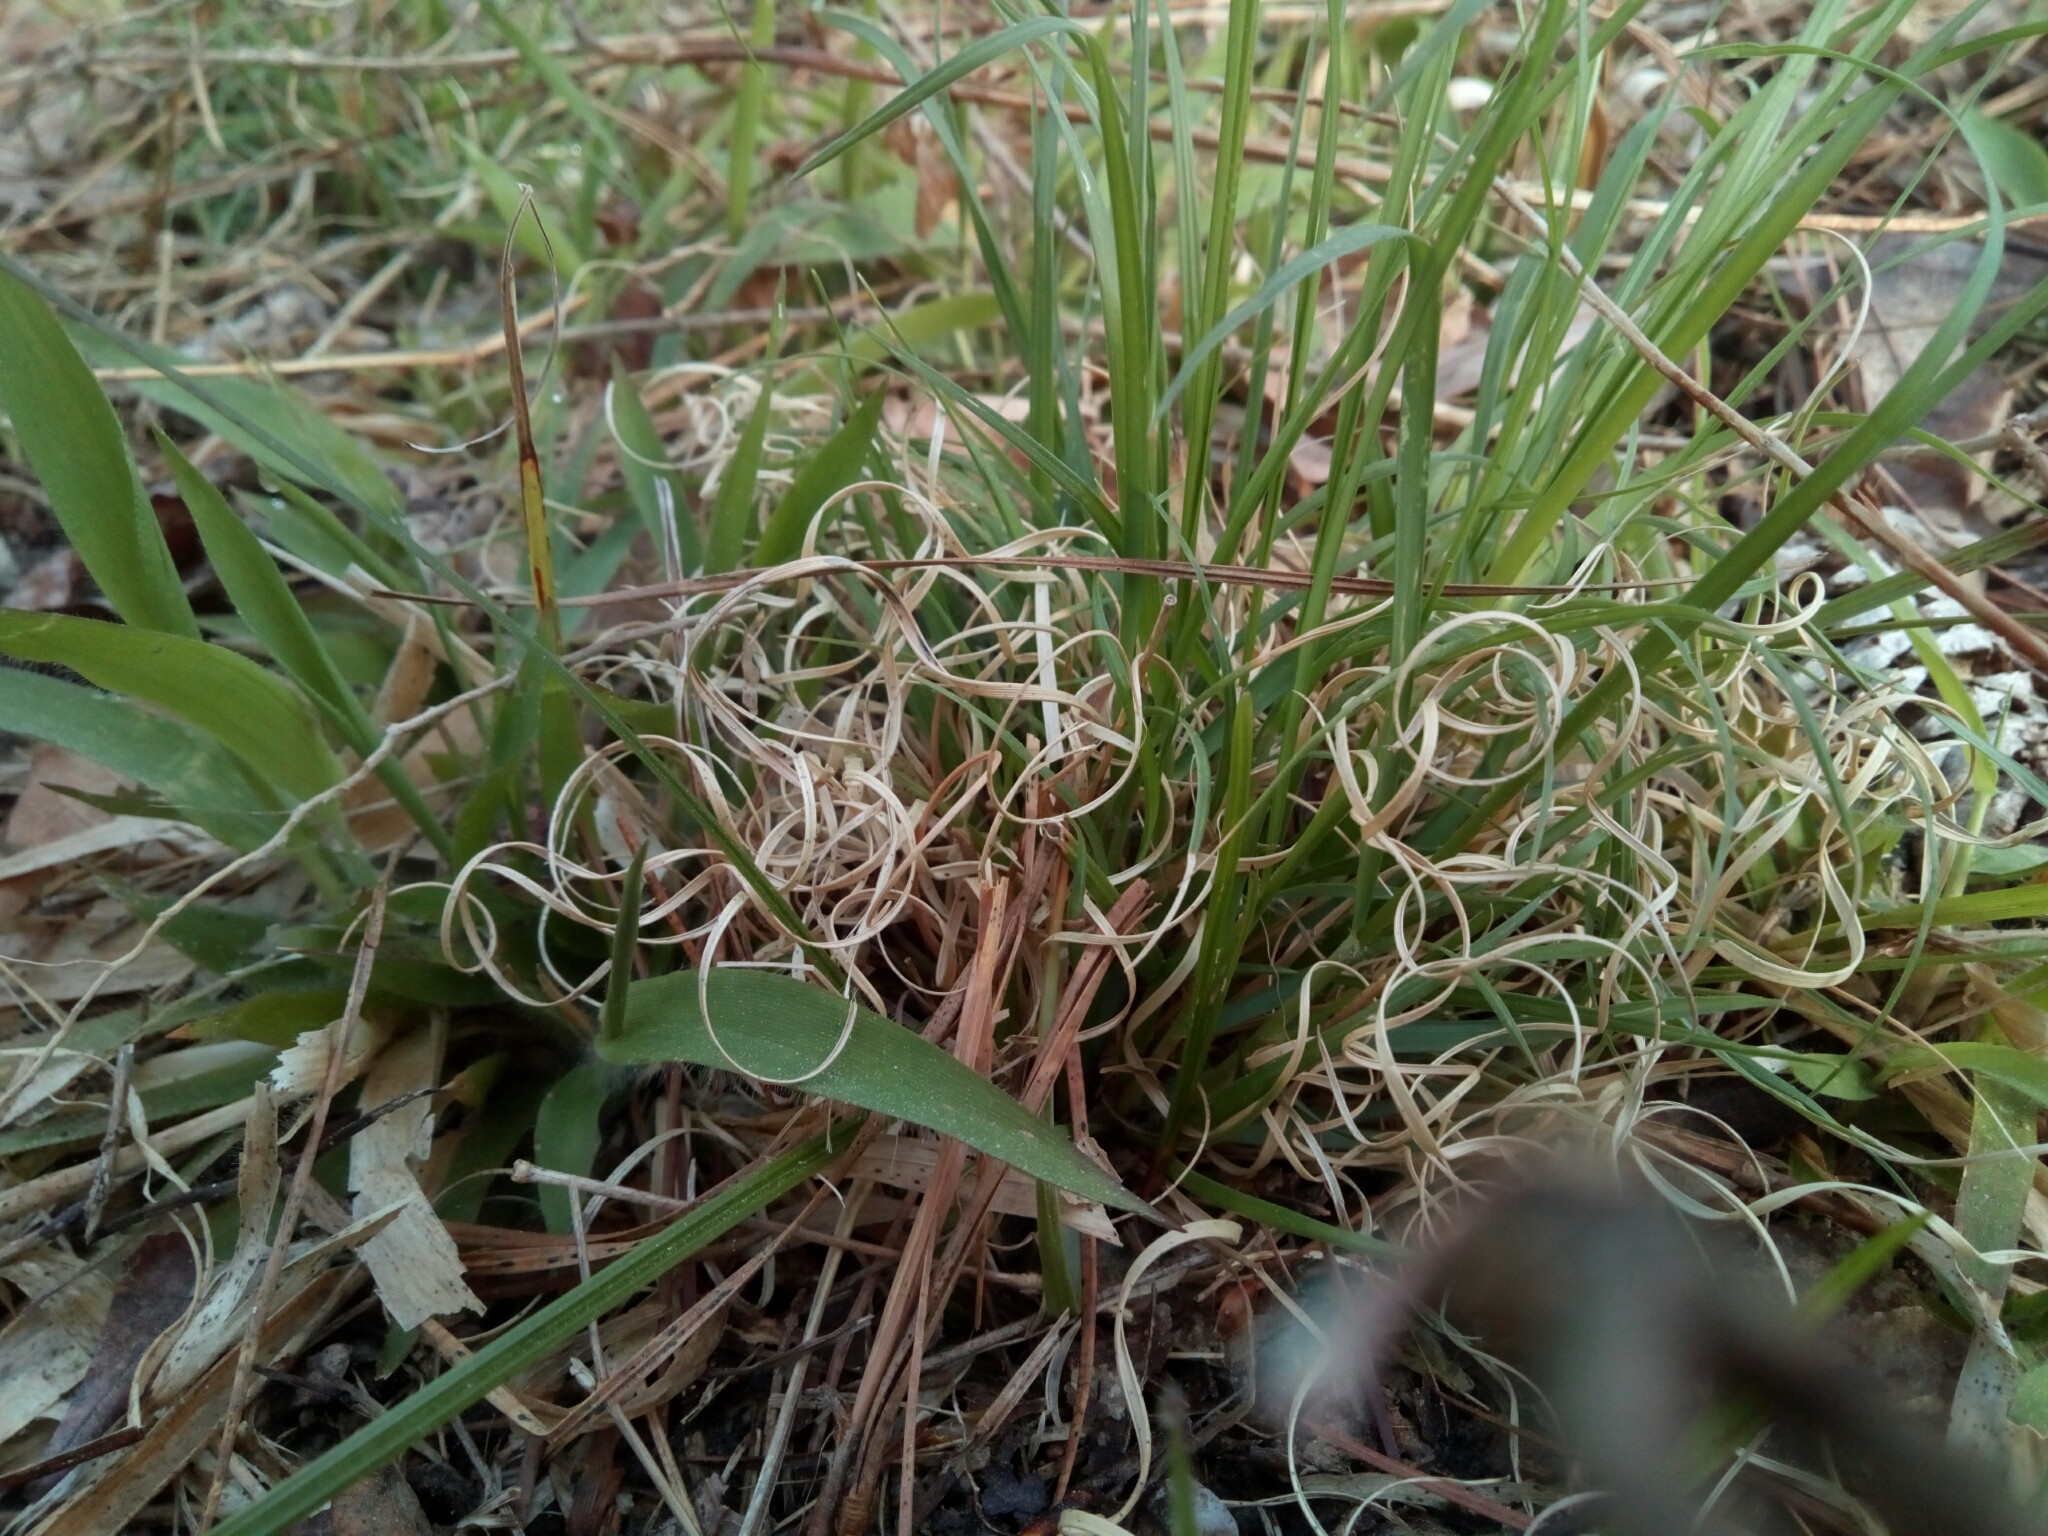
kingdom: Plantae
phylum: Tracheophyta
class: Liliopsida
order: Poales
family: Poaceae
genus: Danthonia
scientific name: Danthonia spicata
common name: Common wild oatgrass
